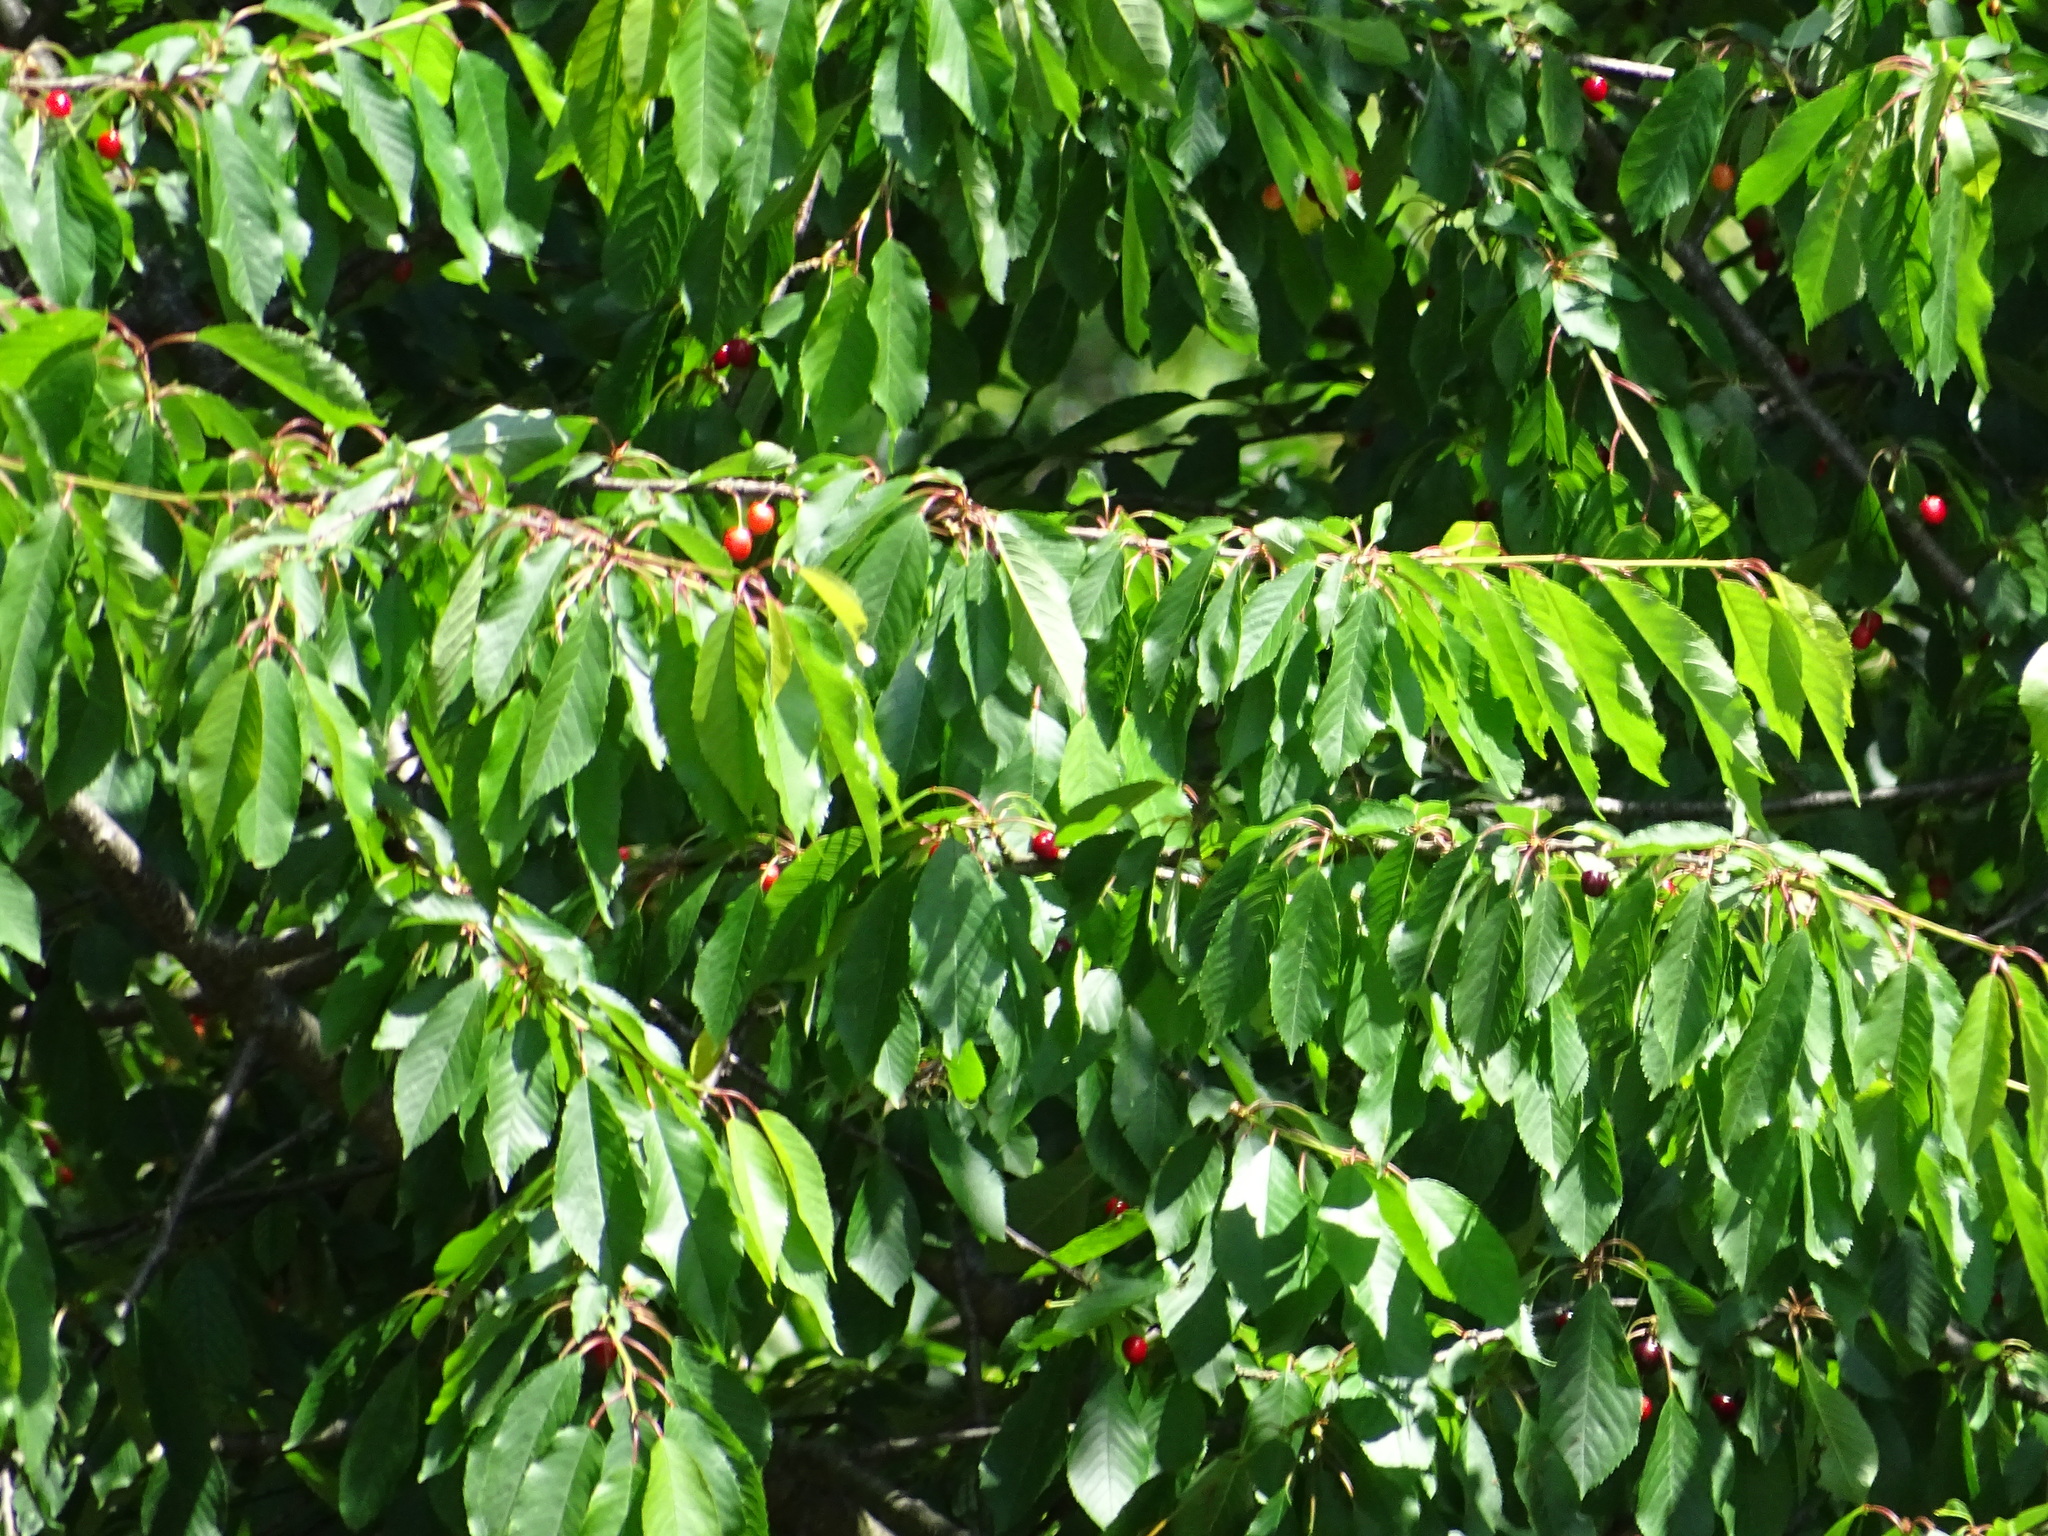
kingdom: Plantae
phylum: Tracheophyta
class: Magnoliopsida
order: Rosales
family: Rosaceae
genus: Prunus
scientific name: Prunus avium
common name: Sweet cherry
